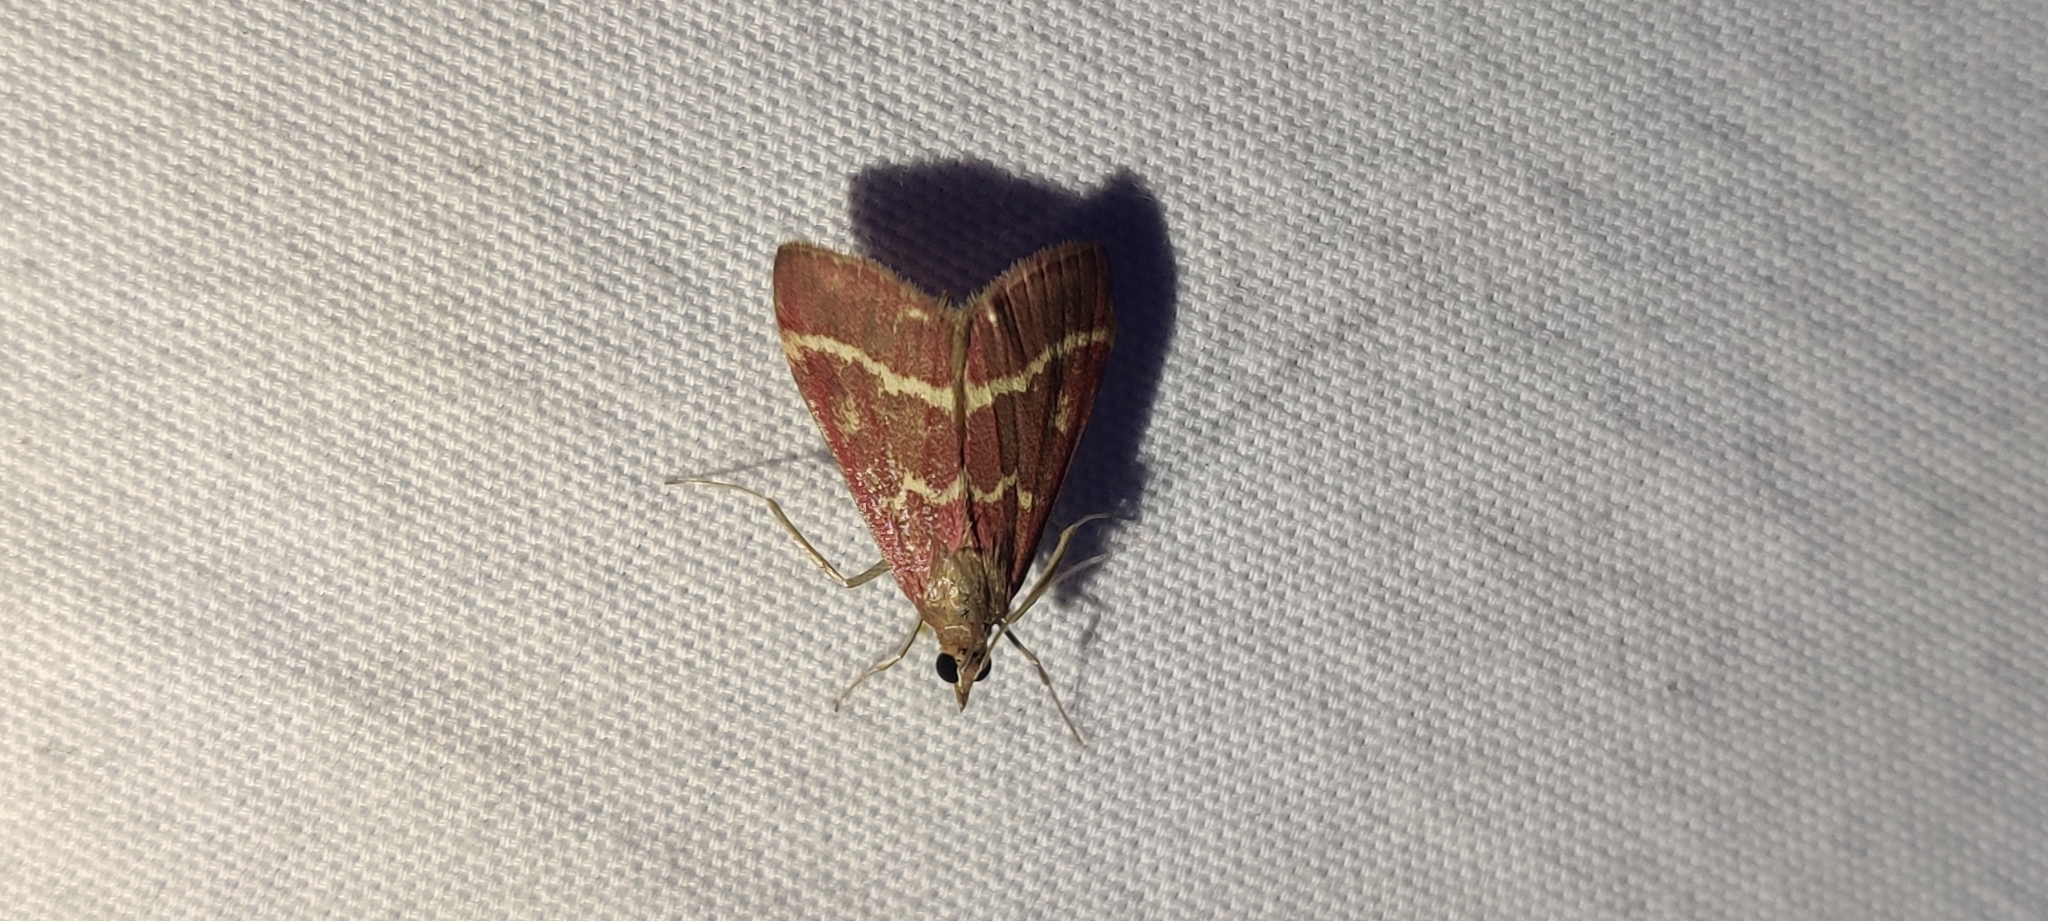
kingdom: Animalia
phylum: Arthropoda
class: Insecta
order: Lepidoptera
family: Crambidae
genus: Pyrausta
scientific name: Pyrausta volupialis
